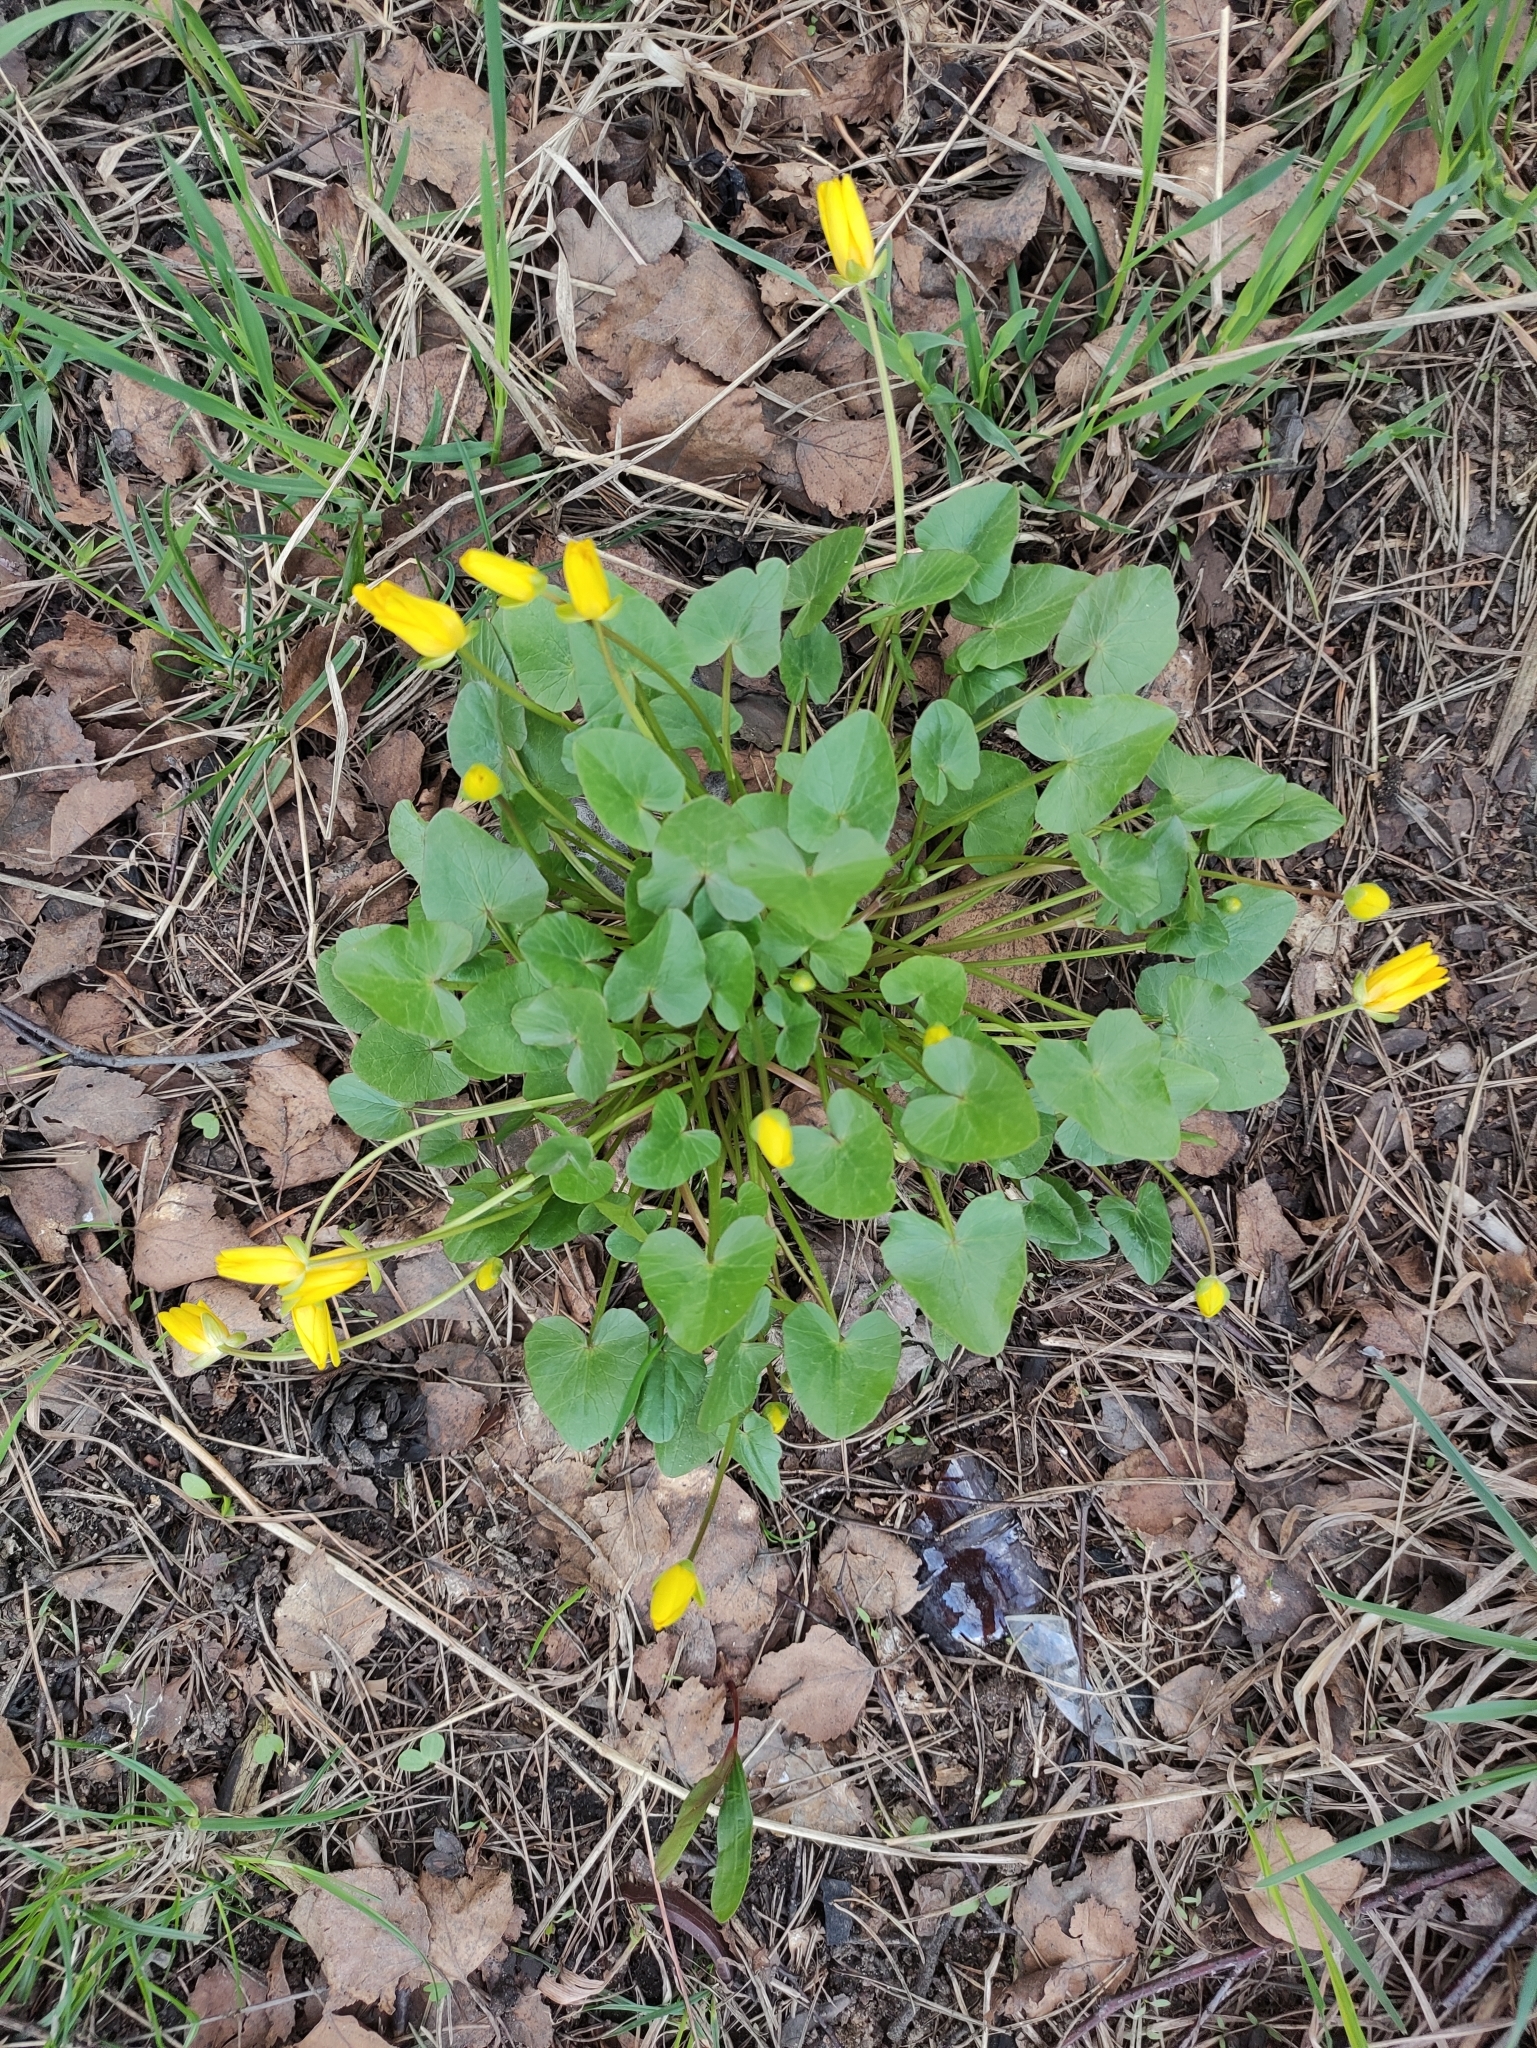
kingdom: Plantae
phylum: Tracheophyta
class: Magnoliopsida
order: Ranunculales
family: Ranunculaceae
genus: Ficaria
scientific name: Ficaria verna
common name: Lesser celandine
